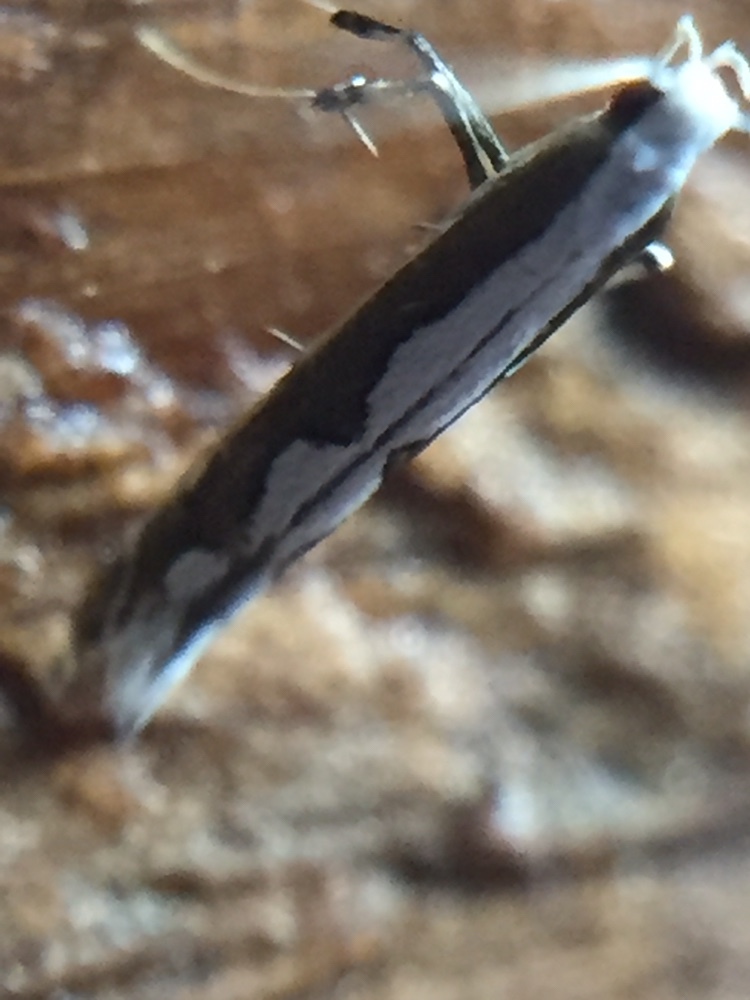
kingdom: Animalia
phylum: Arthropoda
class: Insecta
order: Lepidoptera
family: Gracillariidae
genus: Dialectica
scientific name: Dialectica scalariella
